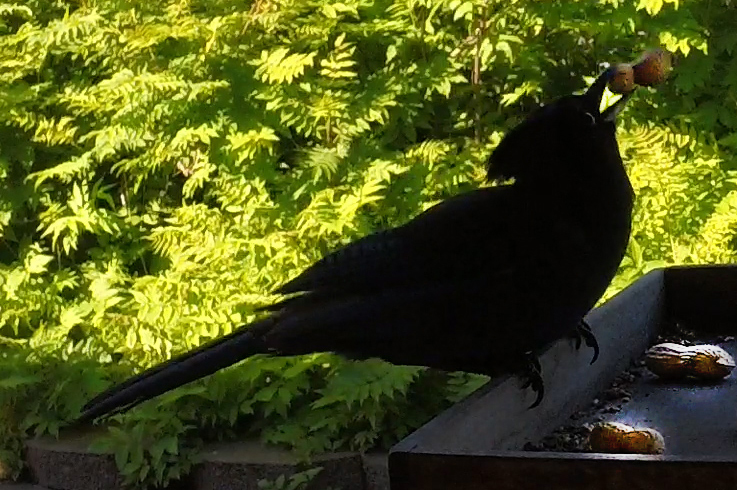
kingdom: Animalia
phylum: Chordata
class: Aves
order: Passeriformes
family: Corvidae
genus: Cyanocitta
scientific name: Cyanocitta stelleri
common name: Steller's jay
